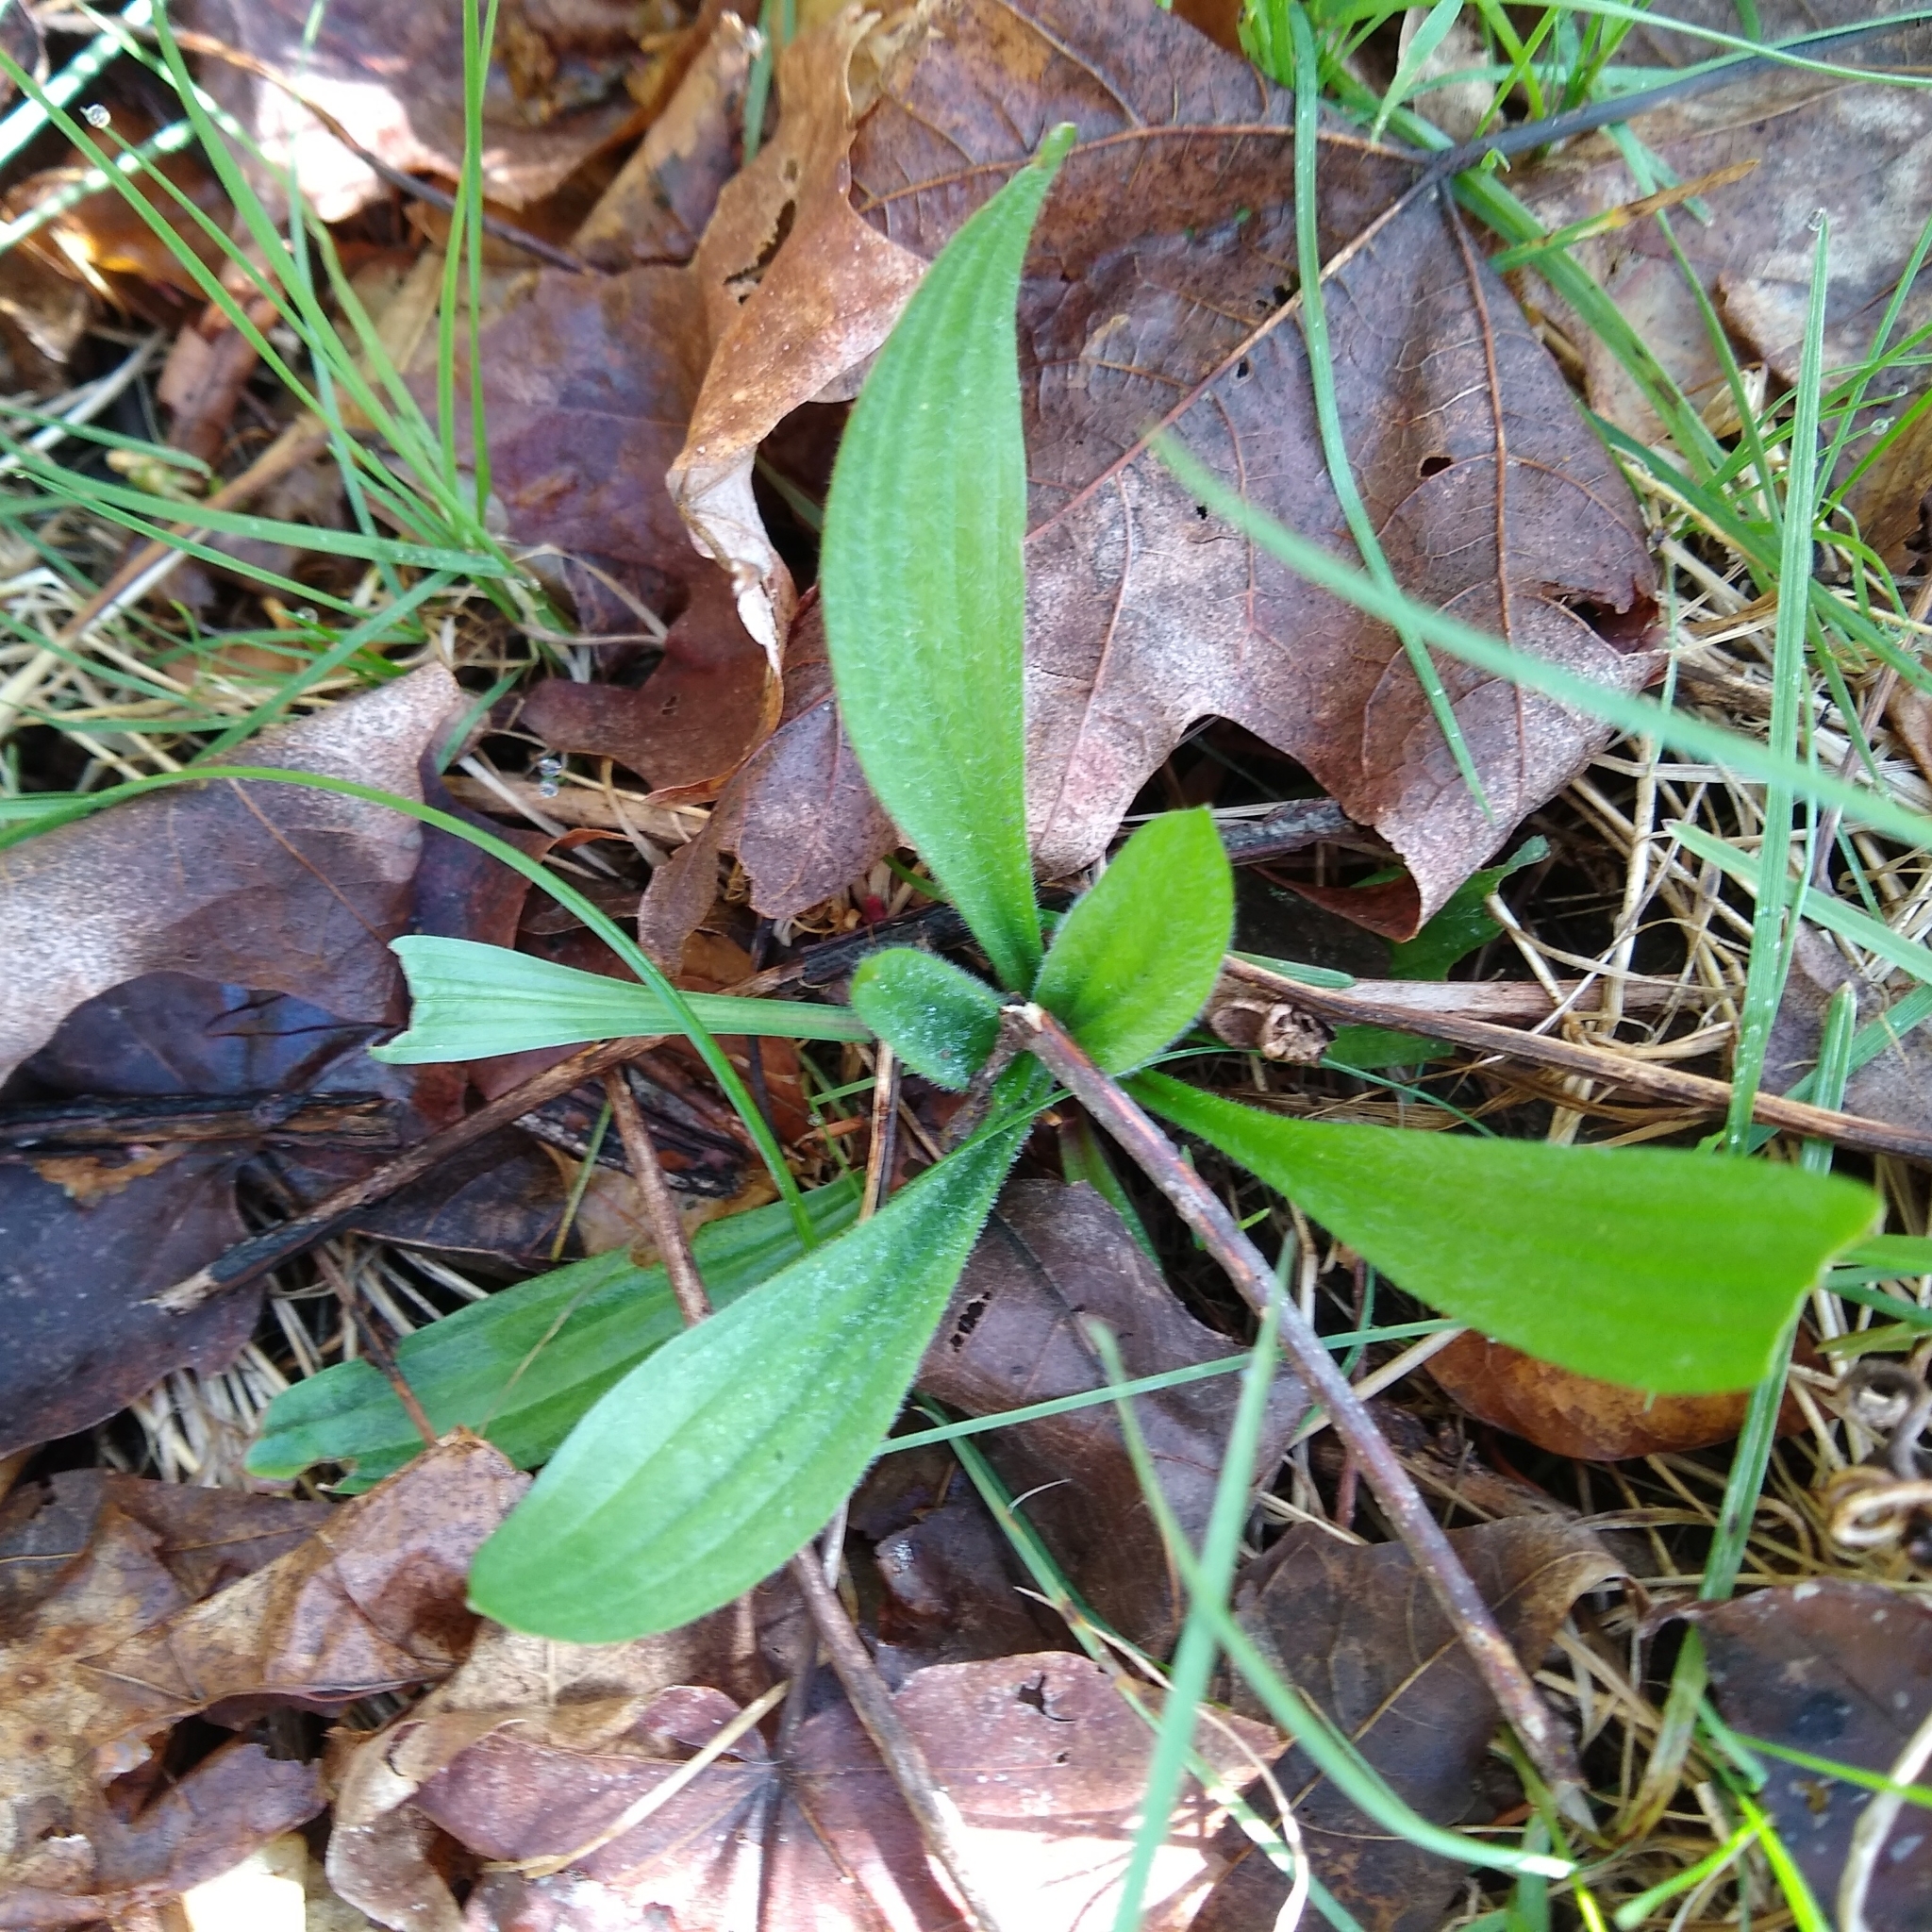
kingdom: Plantae
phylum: Tracheophyta
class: Magnoliopsida
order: Lamiales
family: Plantaginaceae
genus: Plantago
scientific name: Plantago lanceolata
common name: Ribwort plantain
